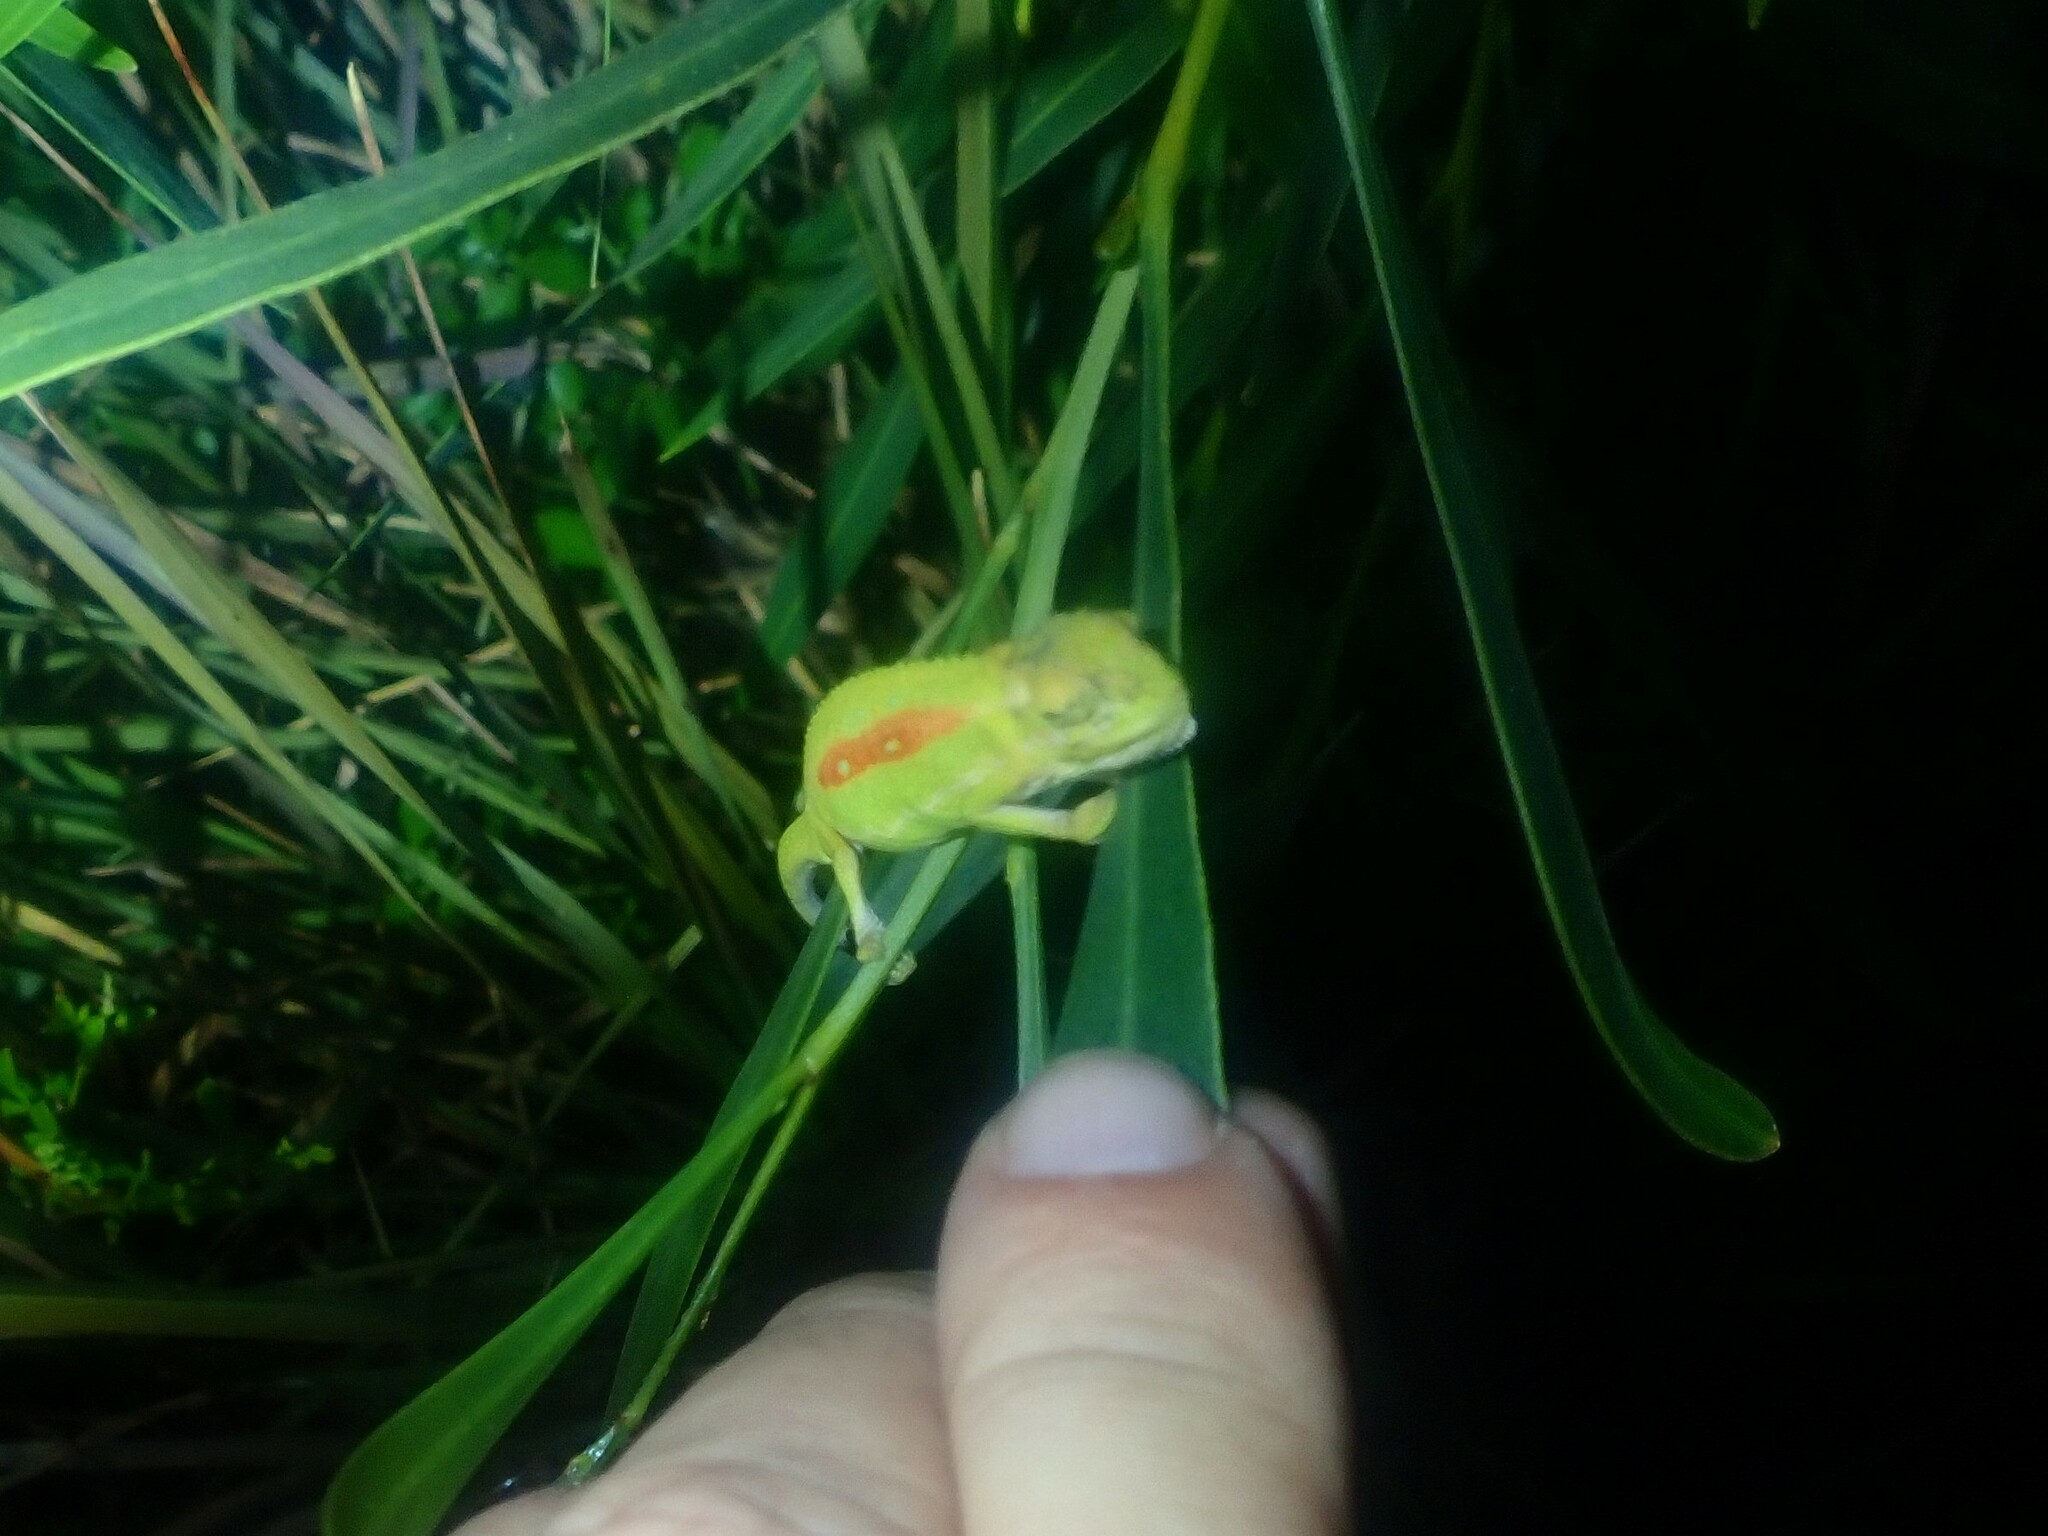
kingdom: Animalia
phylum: Chordata
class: Squamata
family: Chamaeleonidae
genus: Bradypodion
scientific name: Bradypodion pumilum
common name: Cape dwarf chameleon
